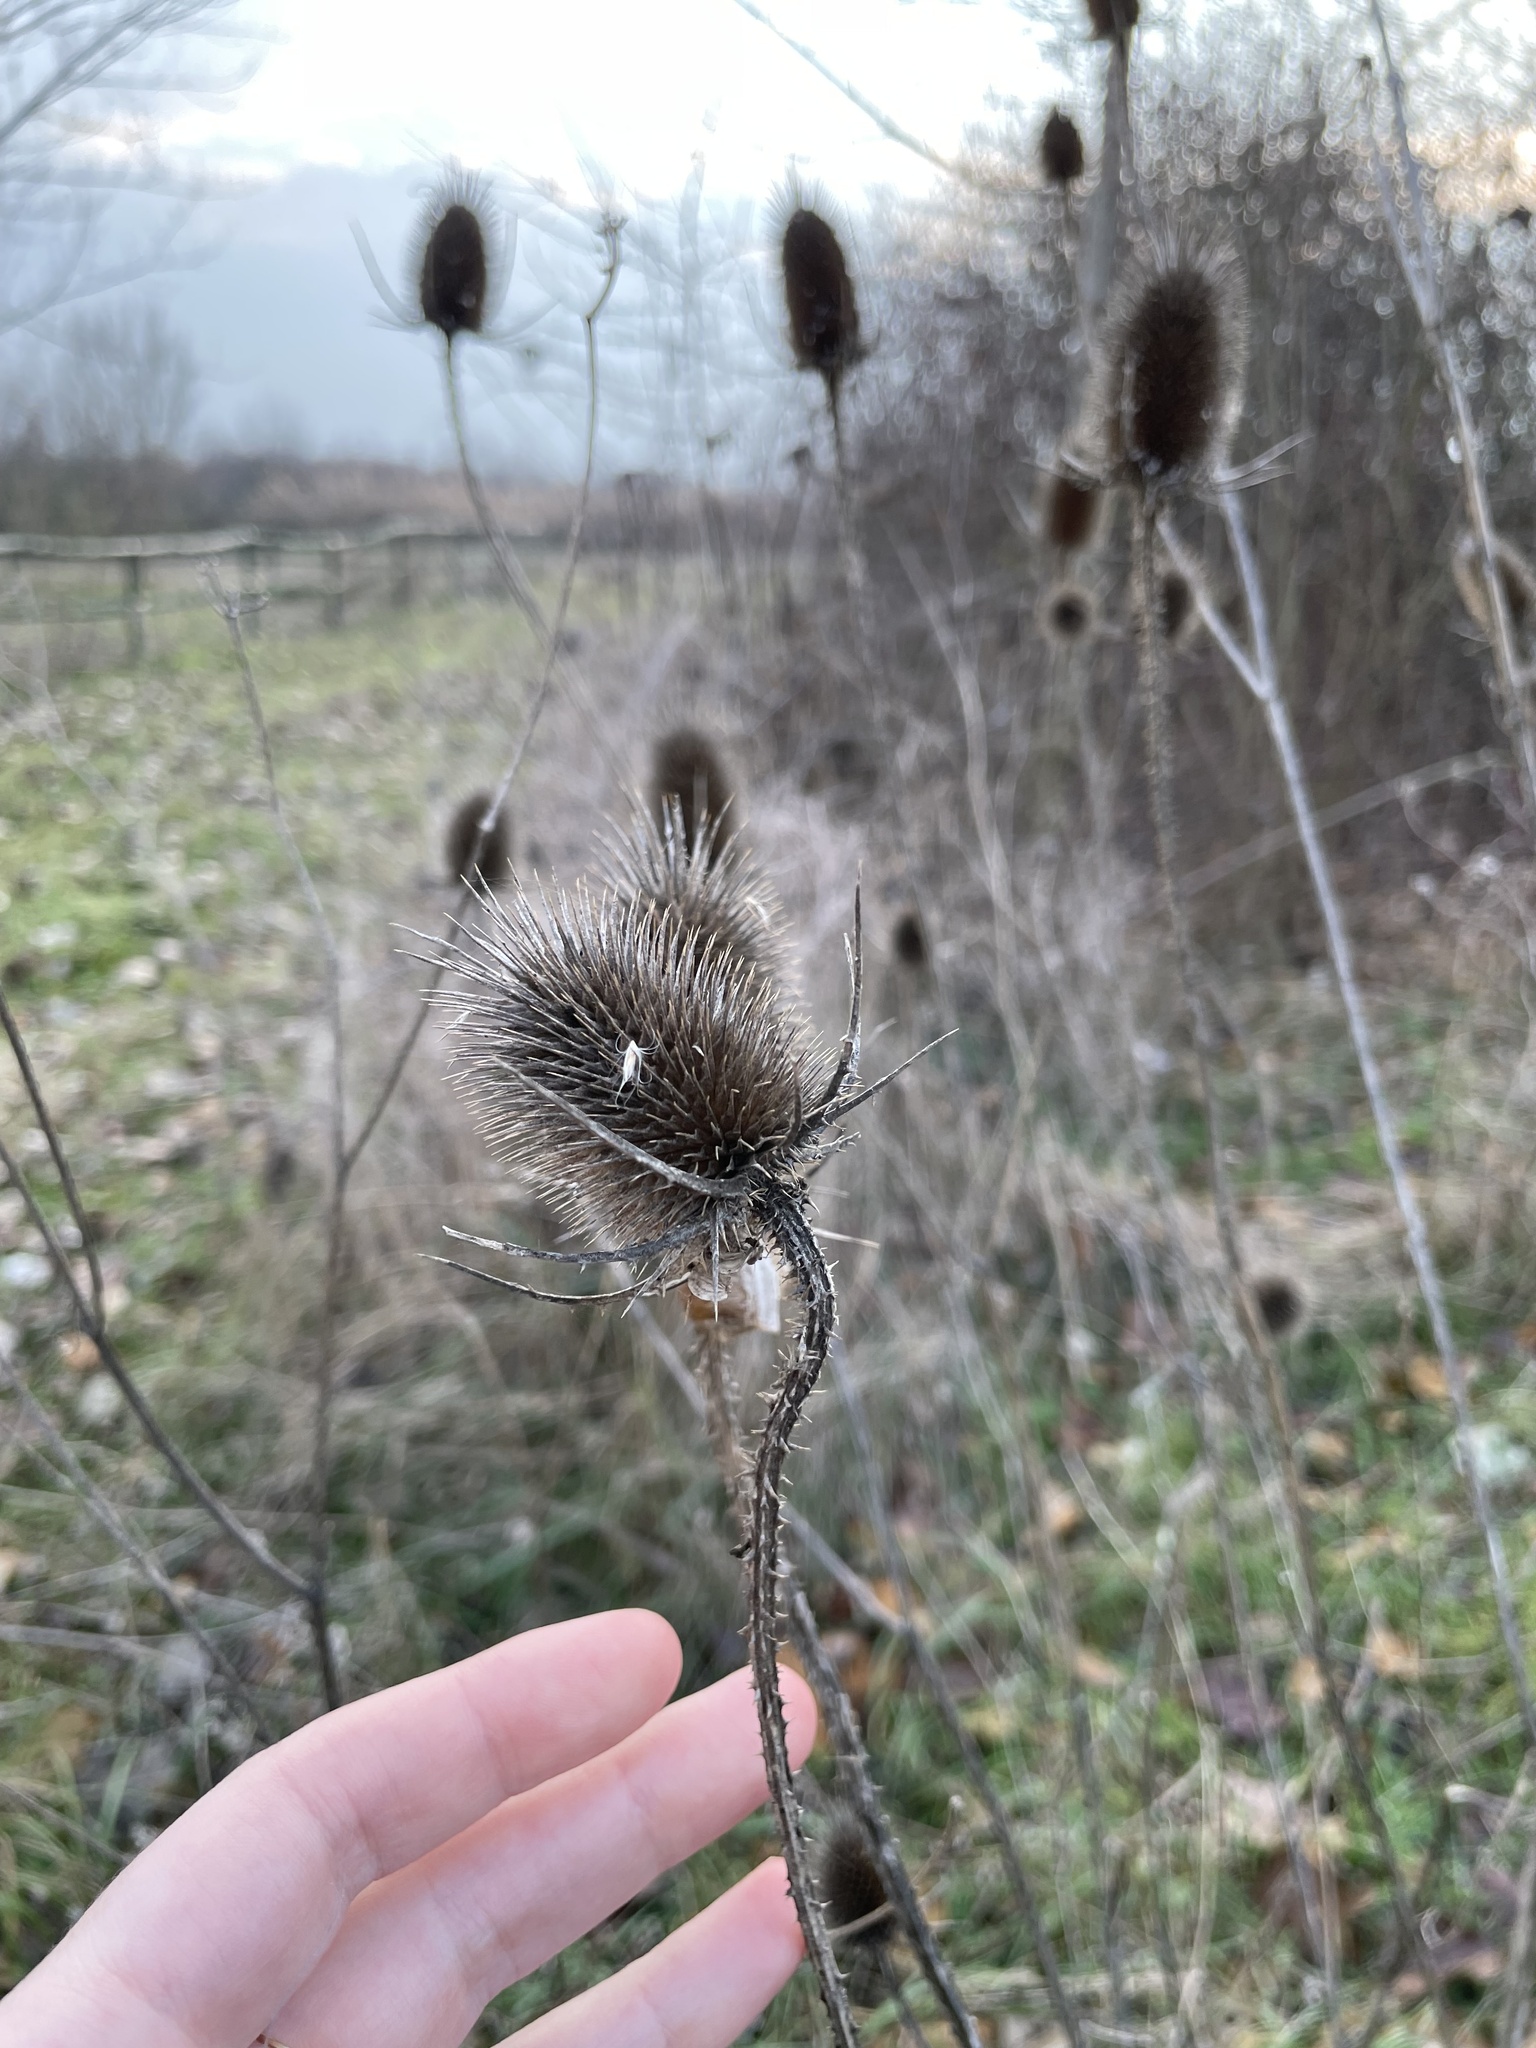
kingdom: Plantae
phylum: Tracheophyta
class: Magnoliopsida
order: Dipsacales
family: Caprifoliaceae
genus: Dipsacus
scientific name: Dipsacus fullonum
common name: Teasel
